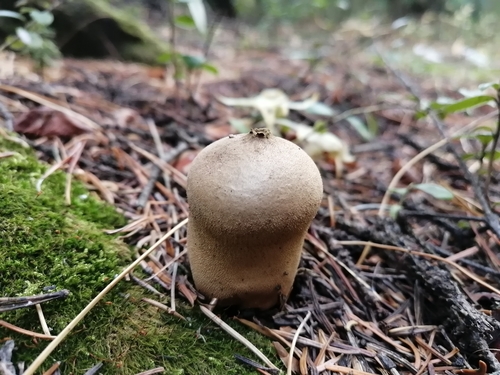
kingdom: Fungi
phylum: Basidiomycota
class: Agaricomycetes
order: Agaricales
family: Lycoperdaceae
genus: Lycoperdon
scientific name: Lycoperdon
